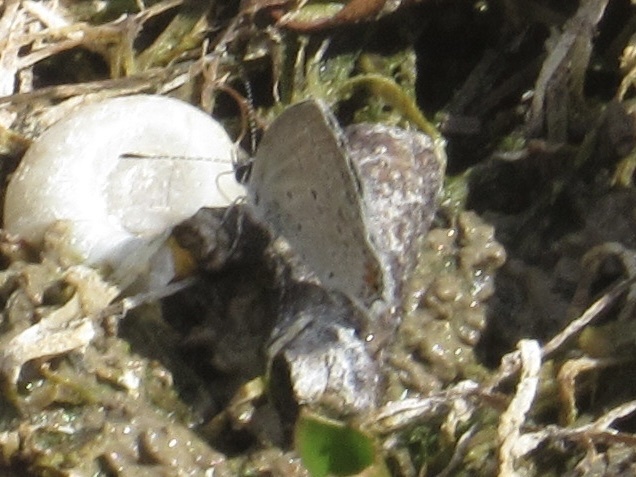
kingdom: Animalia
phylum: Arthropoda
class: Insecta
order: Lepidoptera
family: Lycaenidae
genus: Elkalyce
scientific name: Elkalyce comyntas
